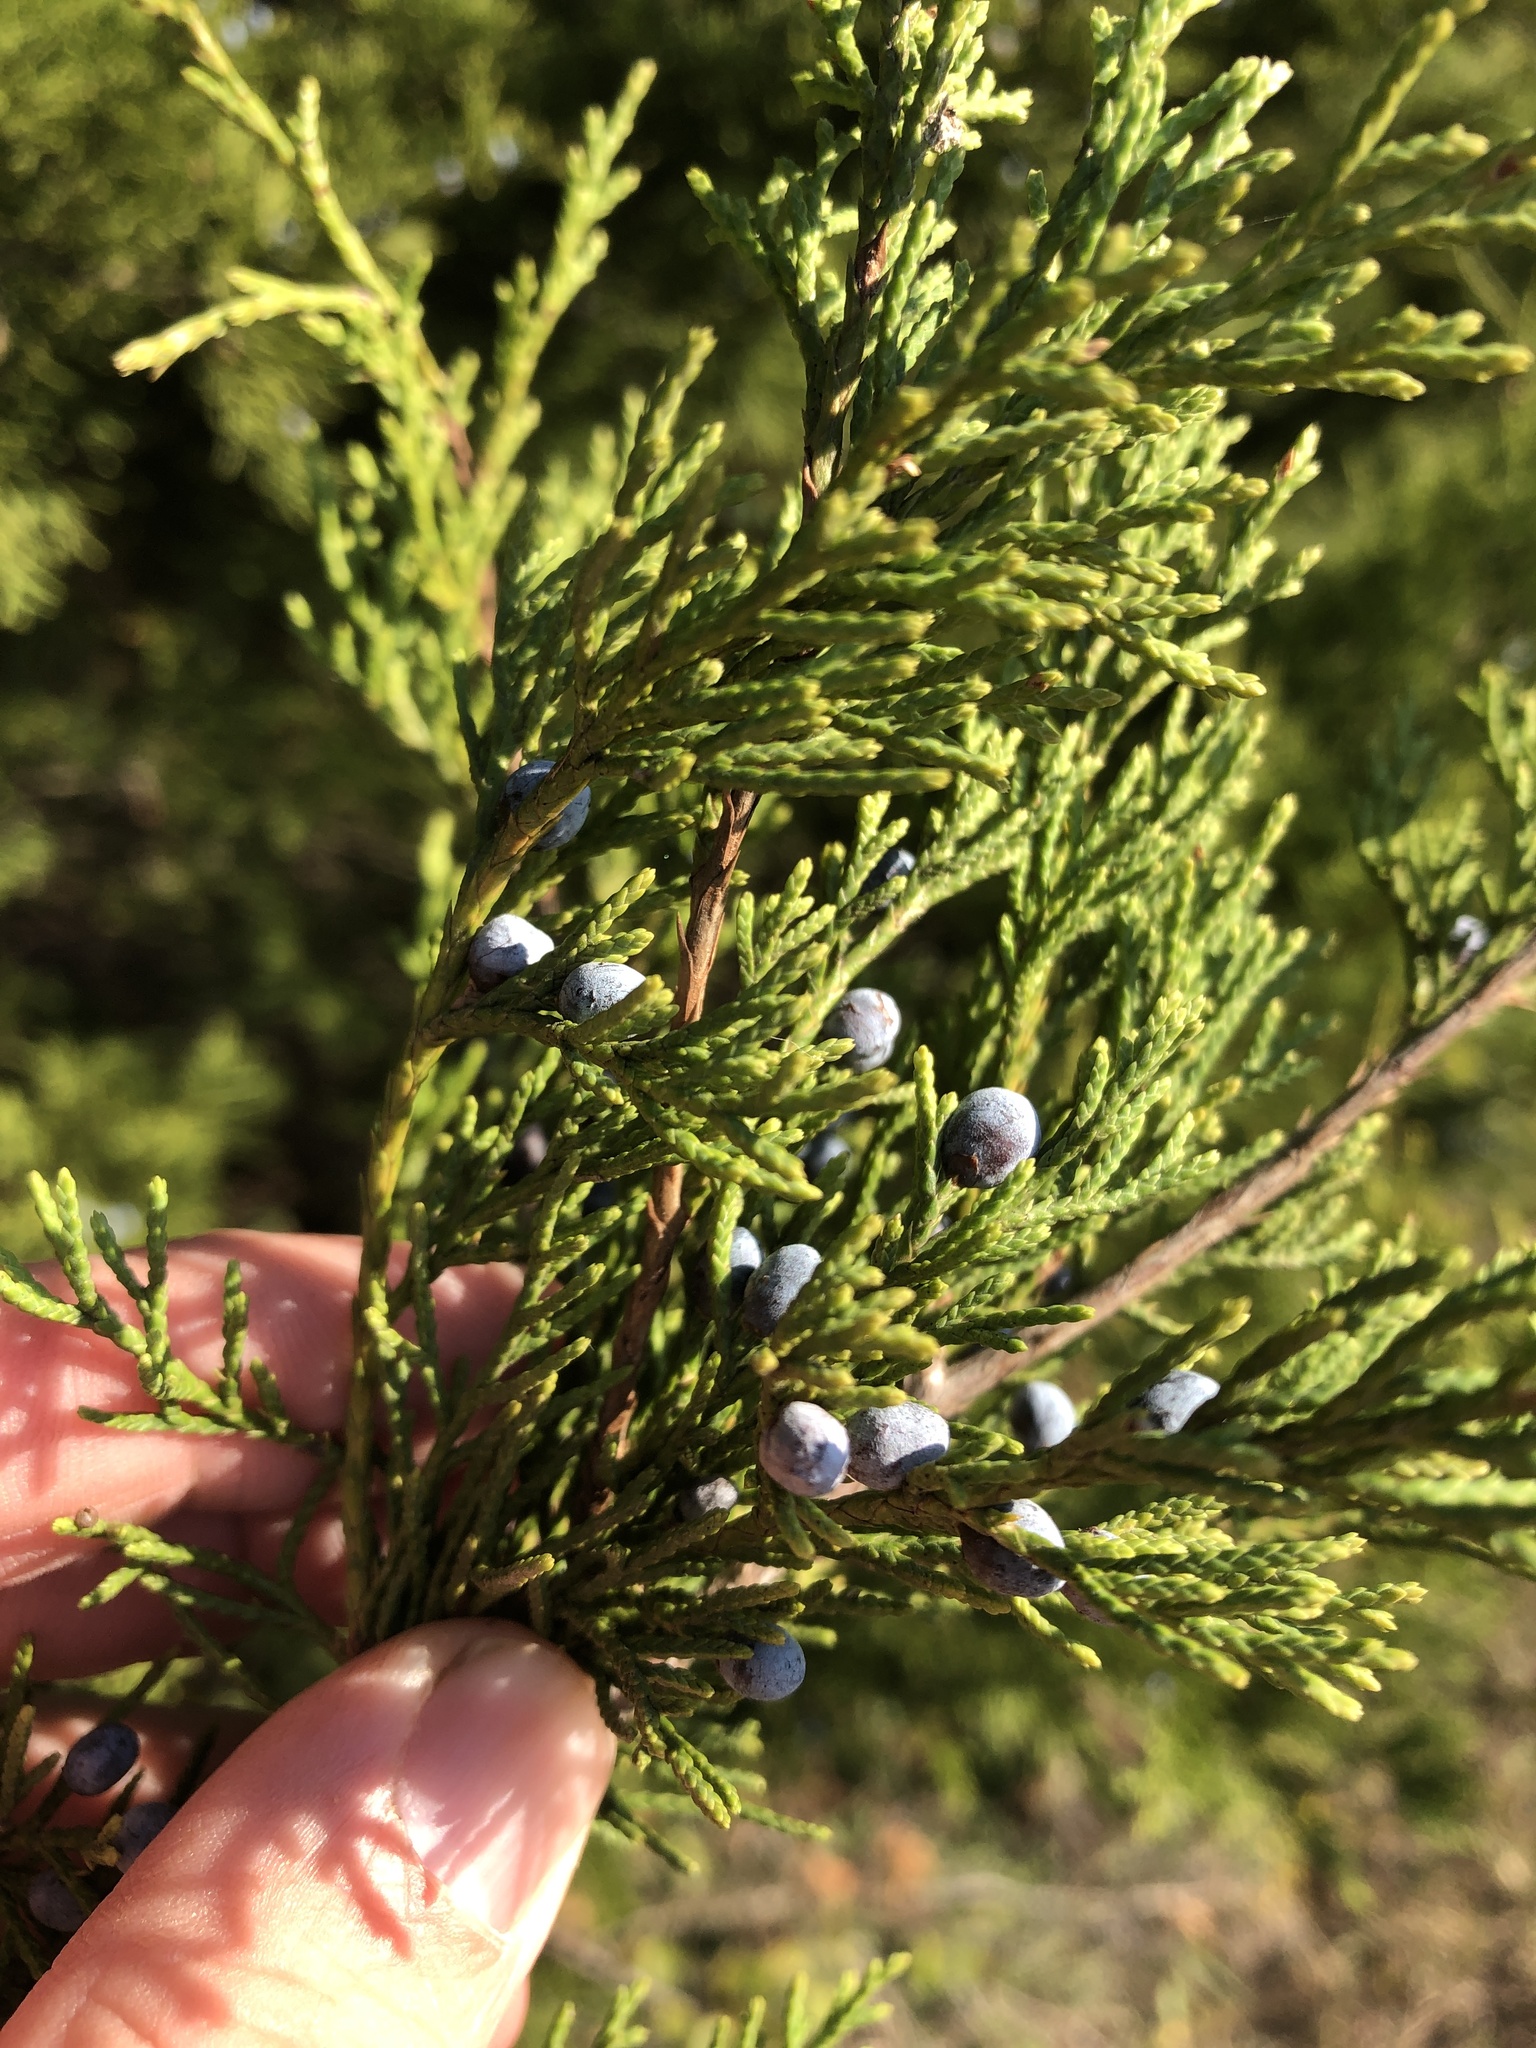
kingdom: Plantae
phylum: Tracheophyta
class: Pinopsida
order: Pinales
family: Cupressaceae
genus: Juniperus
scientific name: Juniperus virginiana
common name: Red juniper
